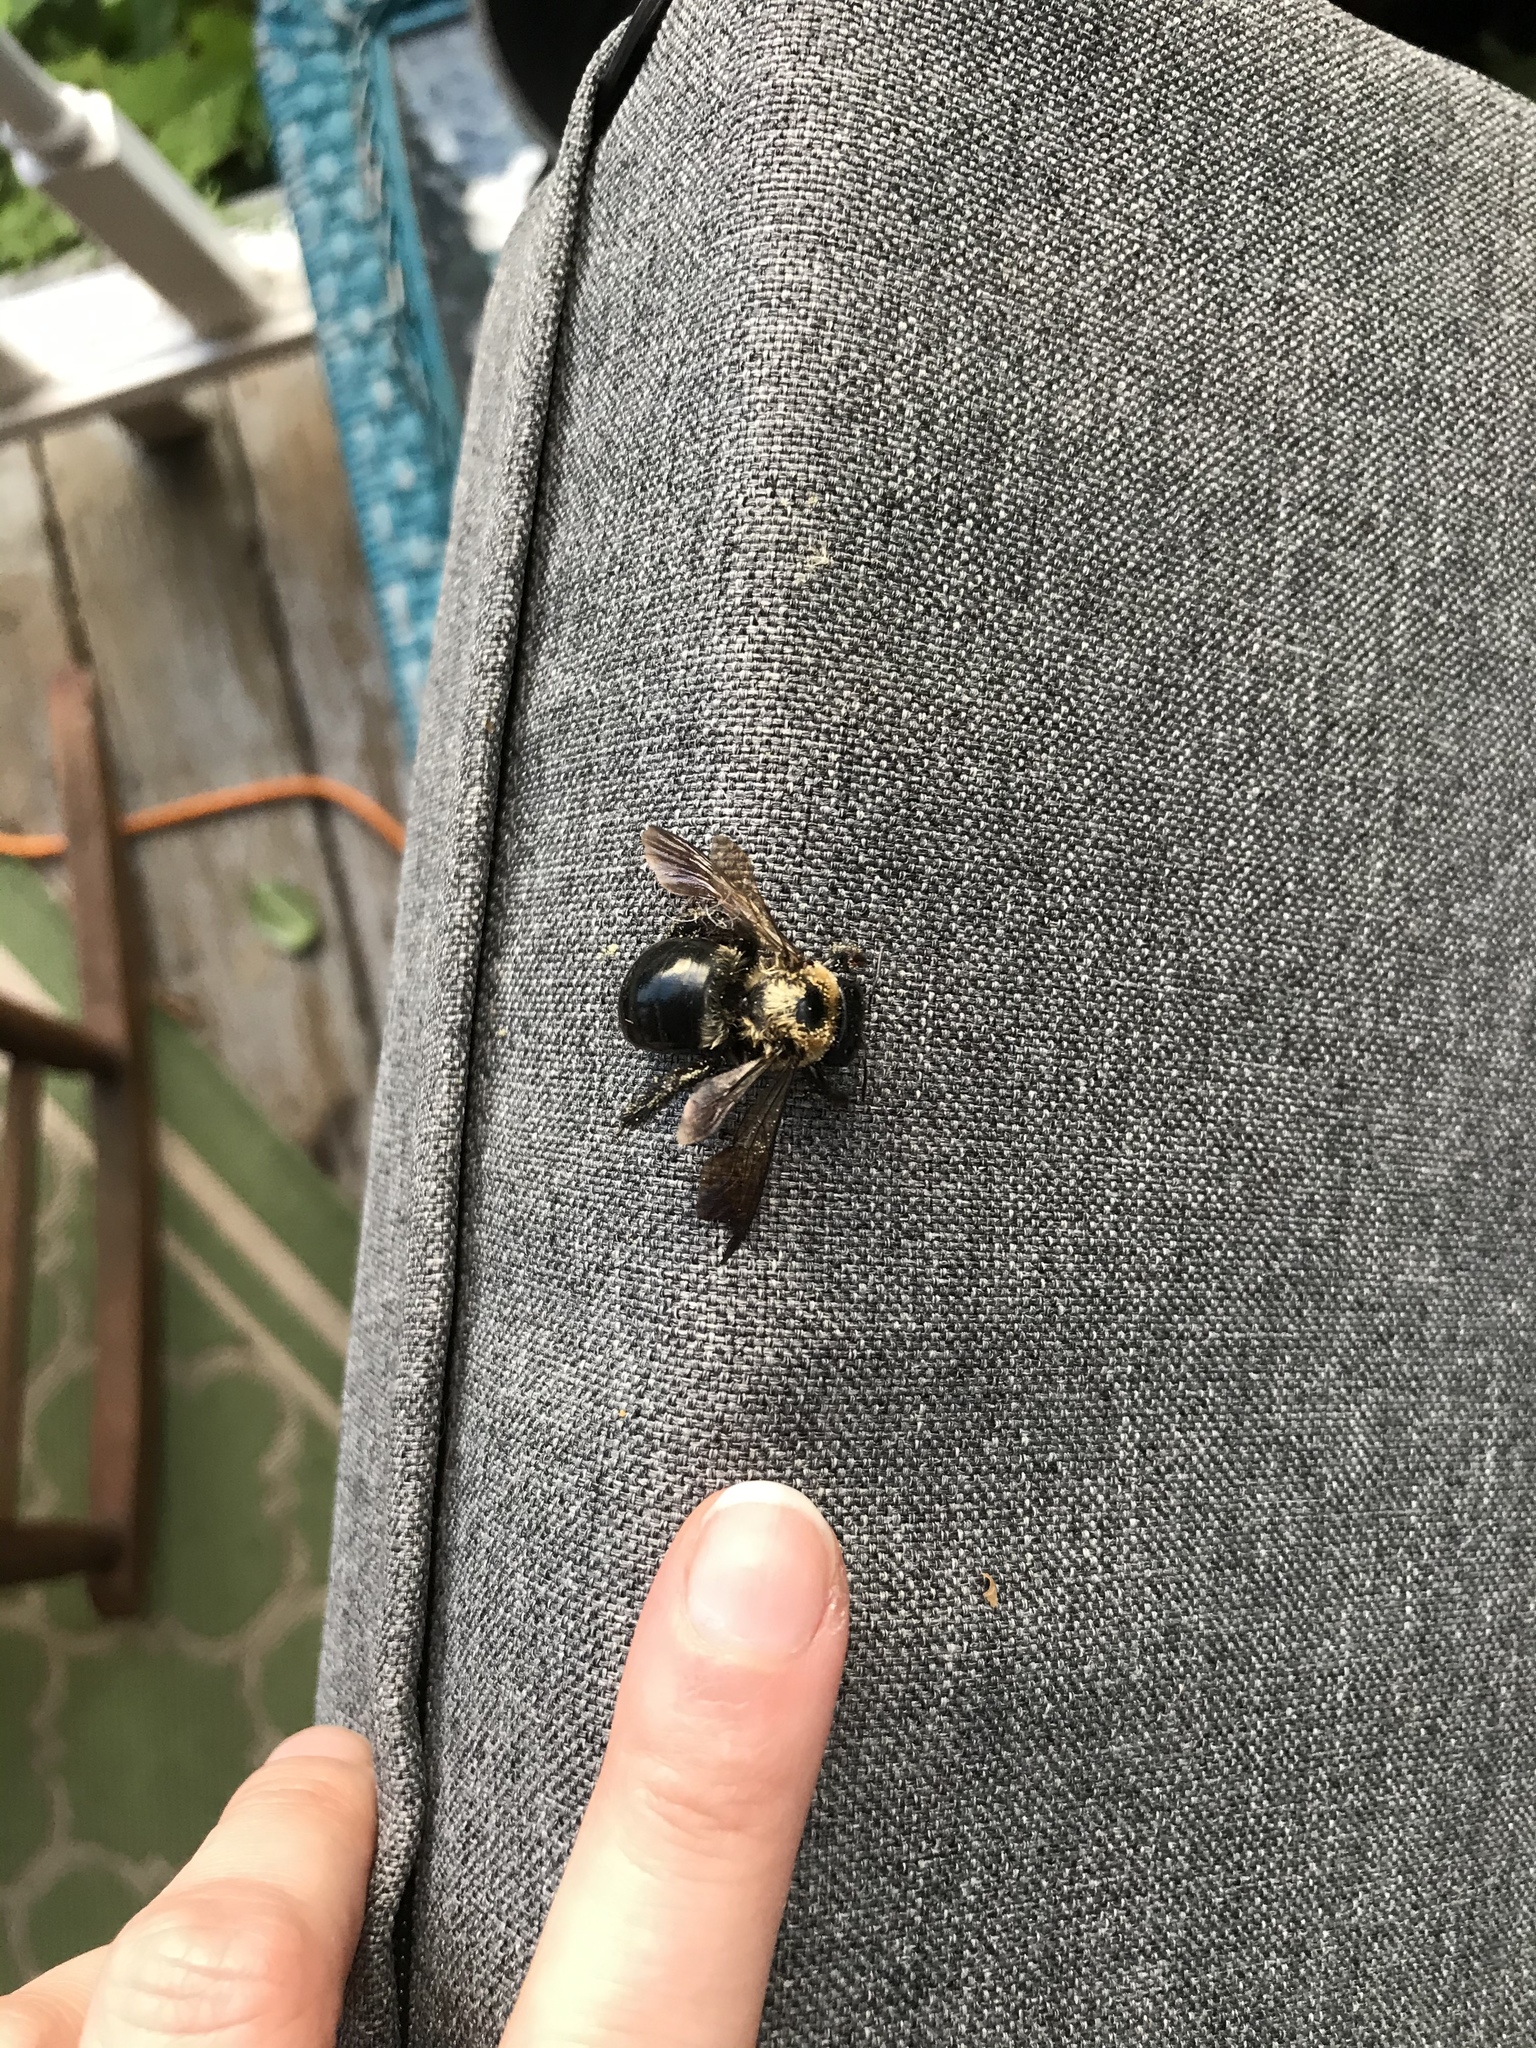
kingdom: Animalia
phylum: Arthropoda
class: Insecta
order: Hymenoptera
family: Apidae
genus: Xylocopa
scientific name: Xylocopa virginica
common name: Carpenter bee
